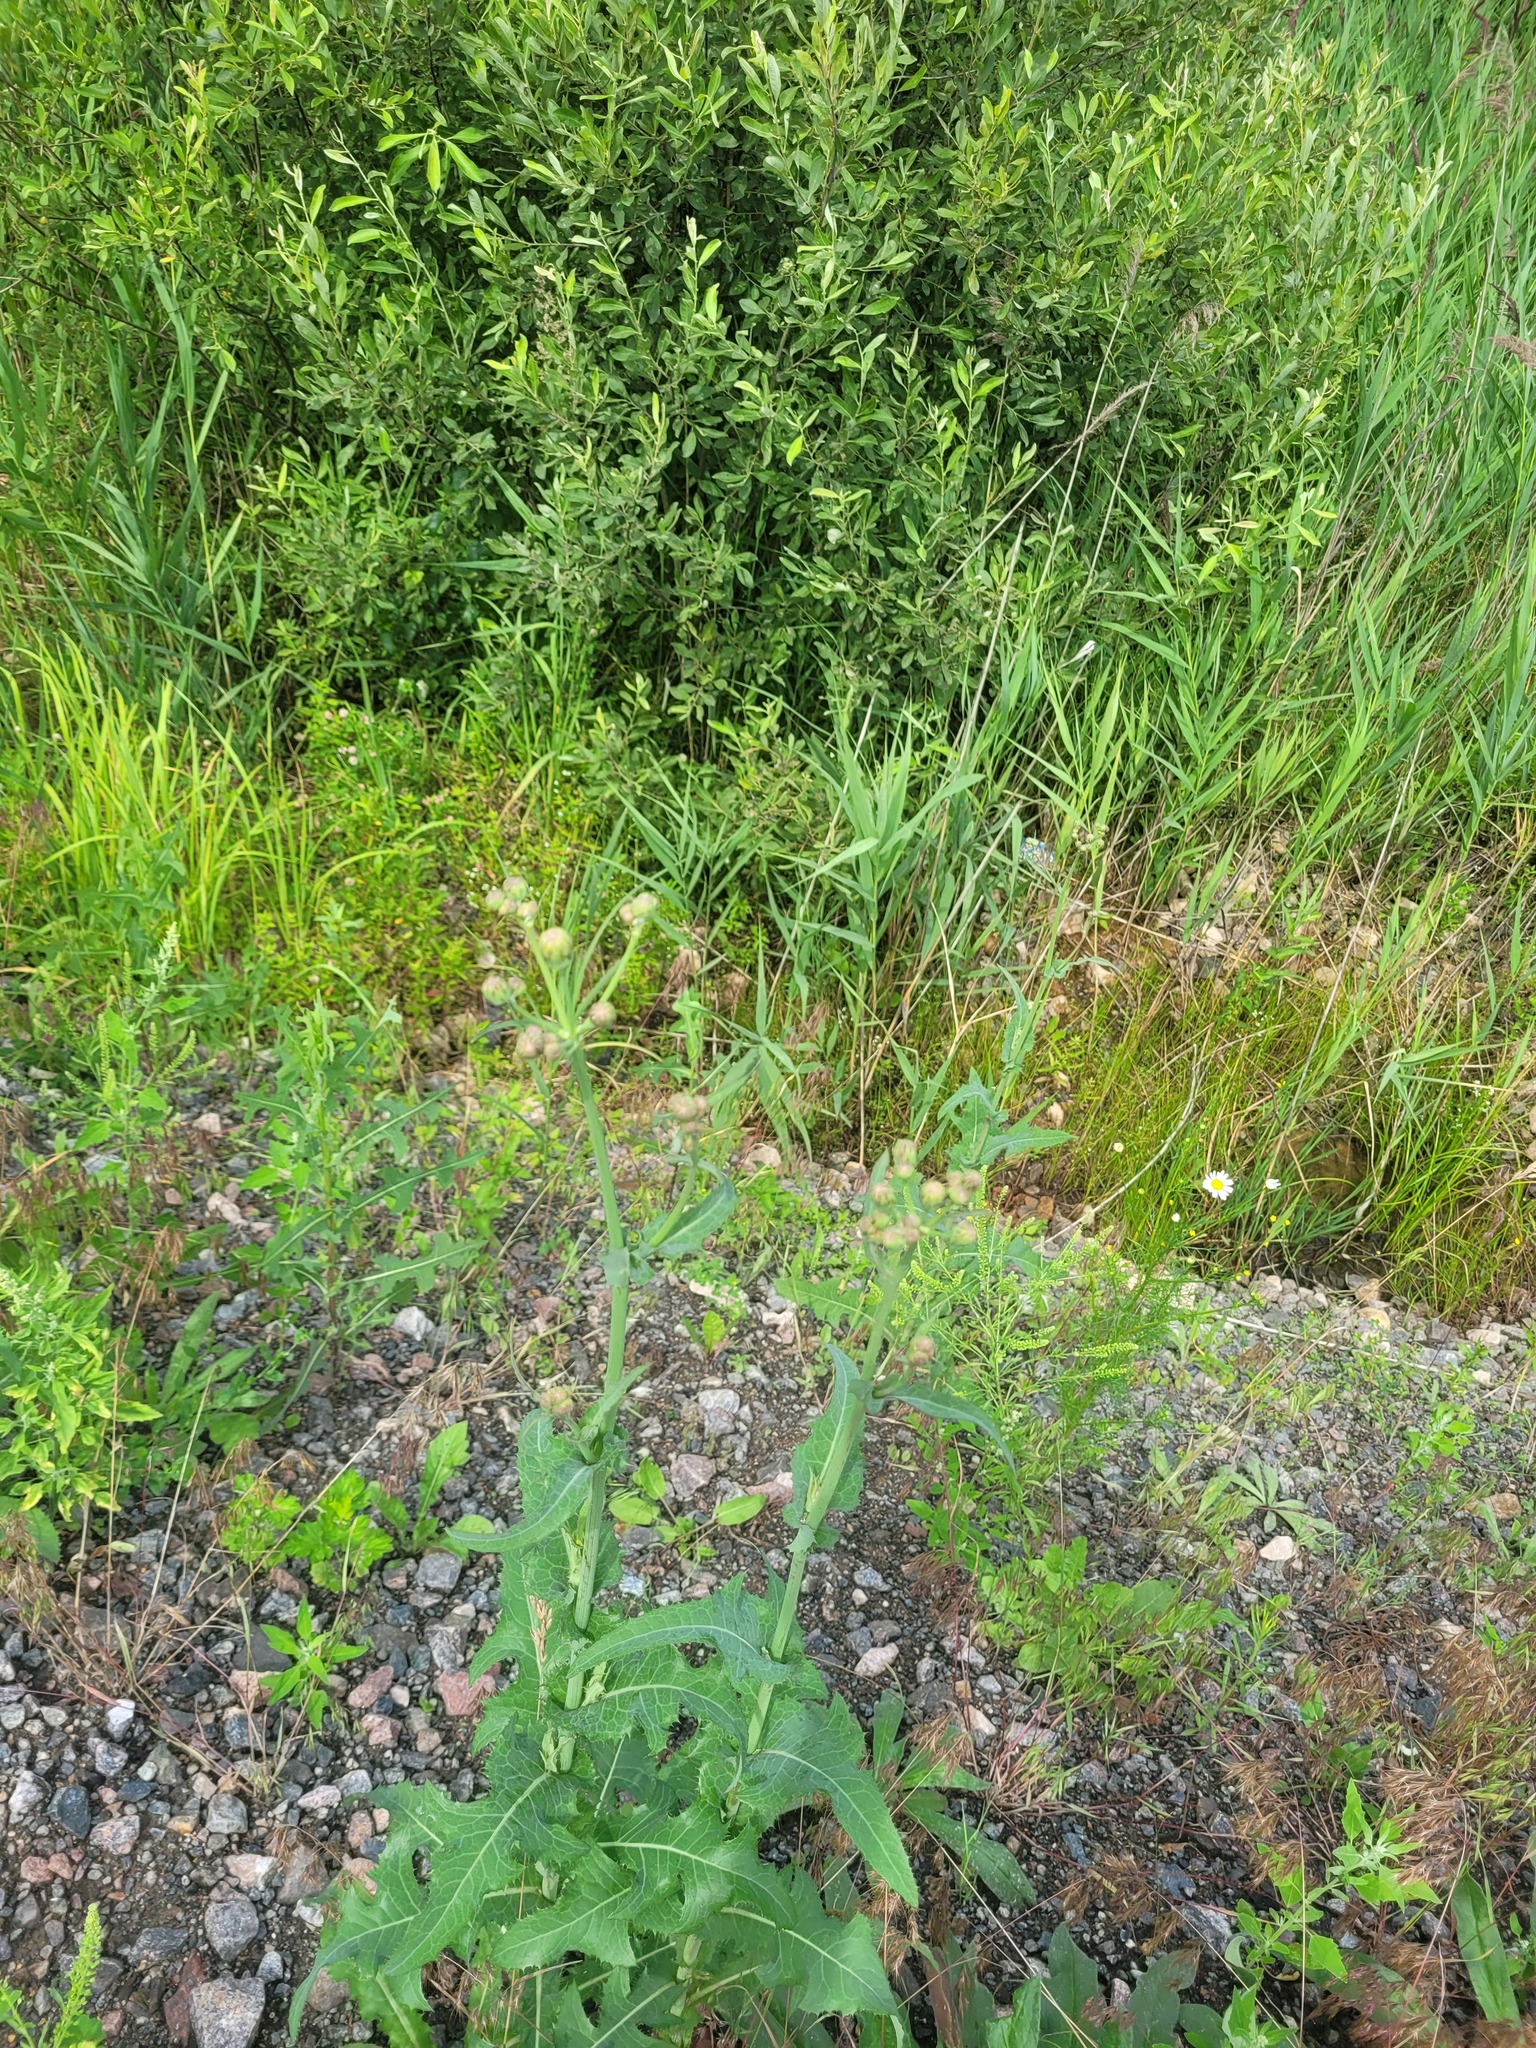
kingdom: Plantae
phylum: Tracheophyta
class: Magnoliopsida
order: Asterales
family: Asteraceae
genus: Sonchus
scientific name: Sonchus arvensis
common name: Perennial sow-thistle
